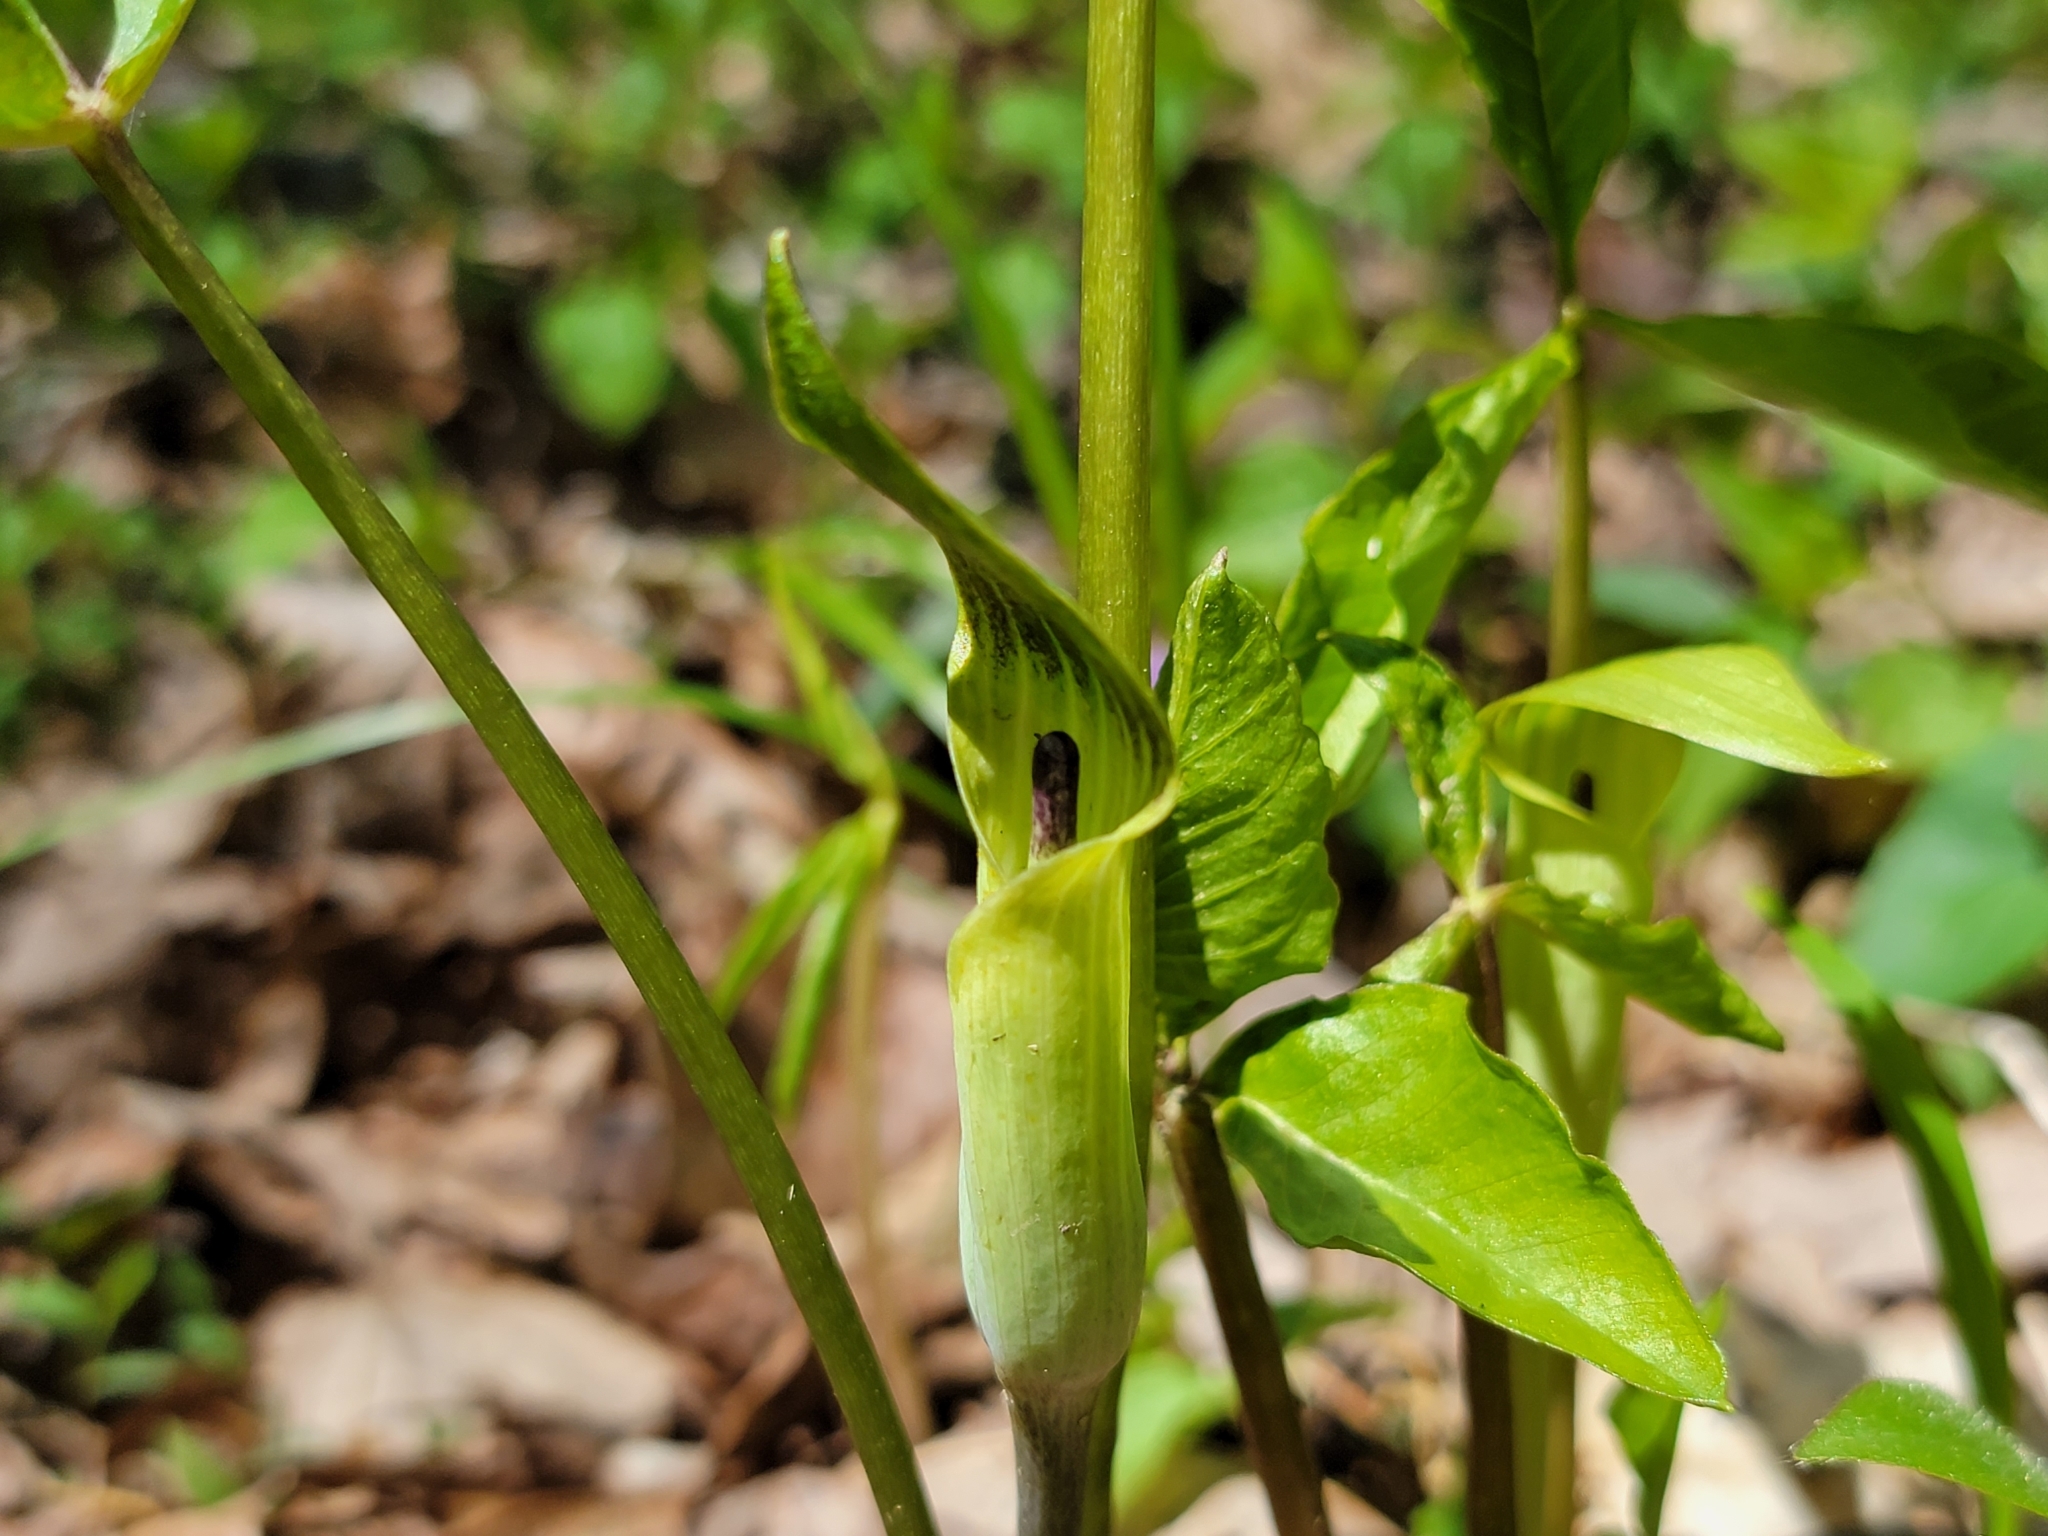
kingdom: Plantae
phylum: Tracheophyta
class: Liliopsida
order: Alismatales
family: Araceae
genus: Arisaema
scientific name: Arisaema triphyllum
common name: Jack-in-the-pulpit
